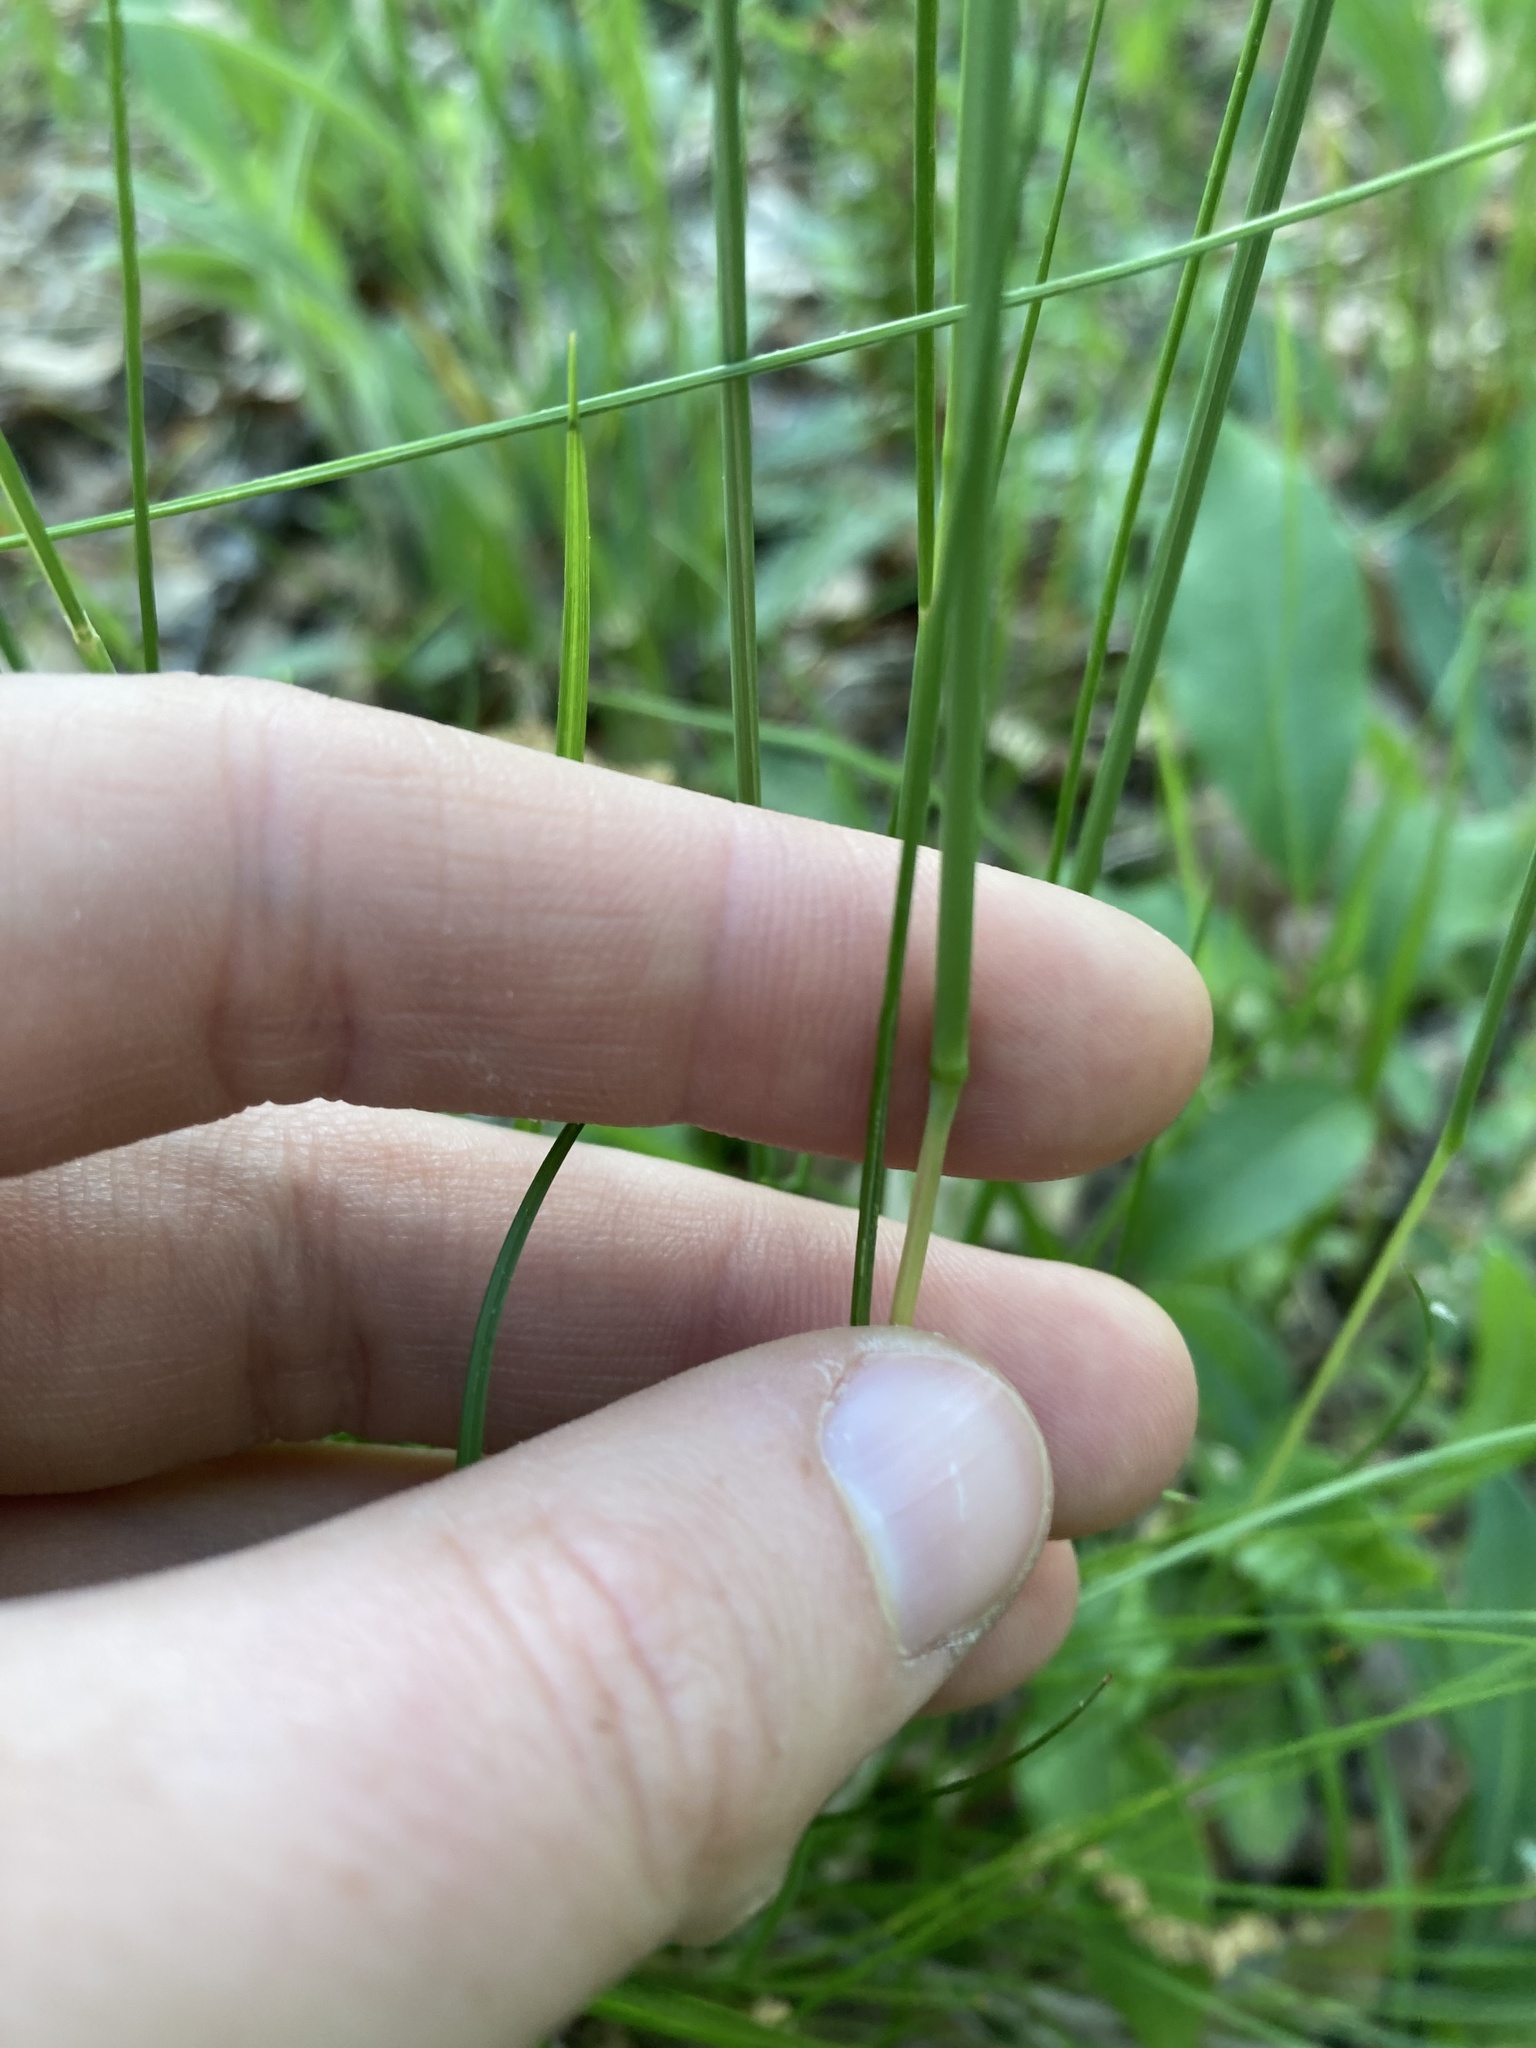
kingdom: Plantae
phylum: Tracheophyta
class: Liliopsida
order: Poales
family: Poaceae
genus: Avenella
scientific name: Avenella flexuosa
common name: Wavy hairgrass
